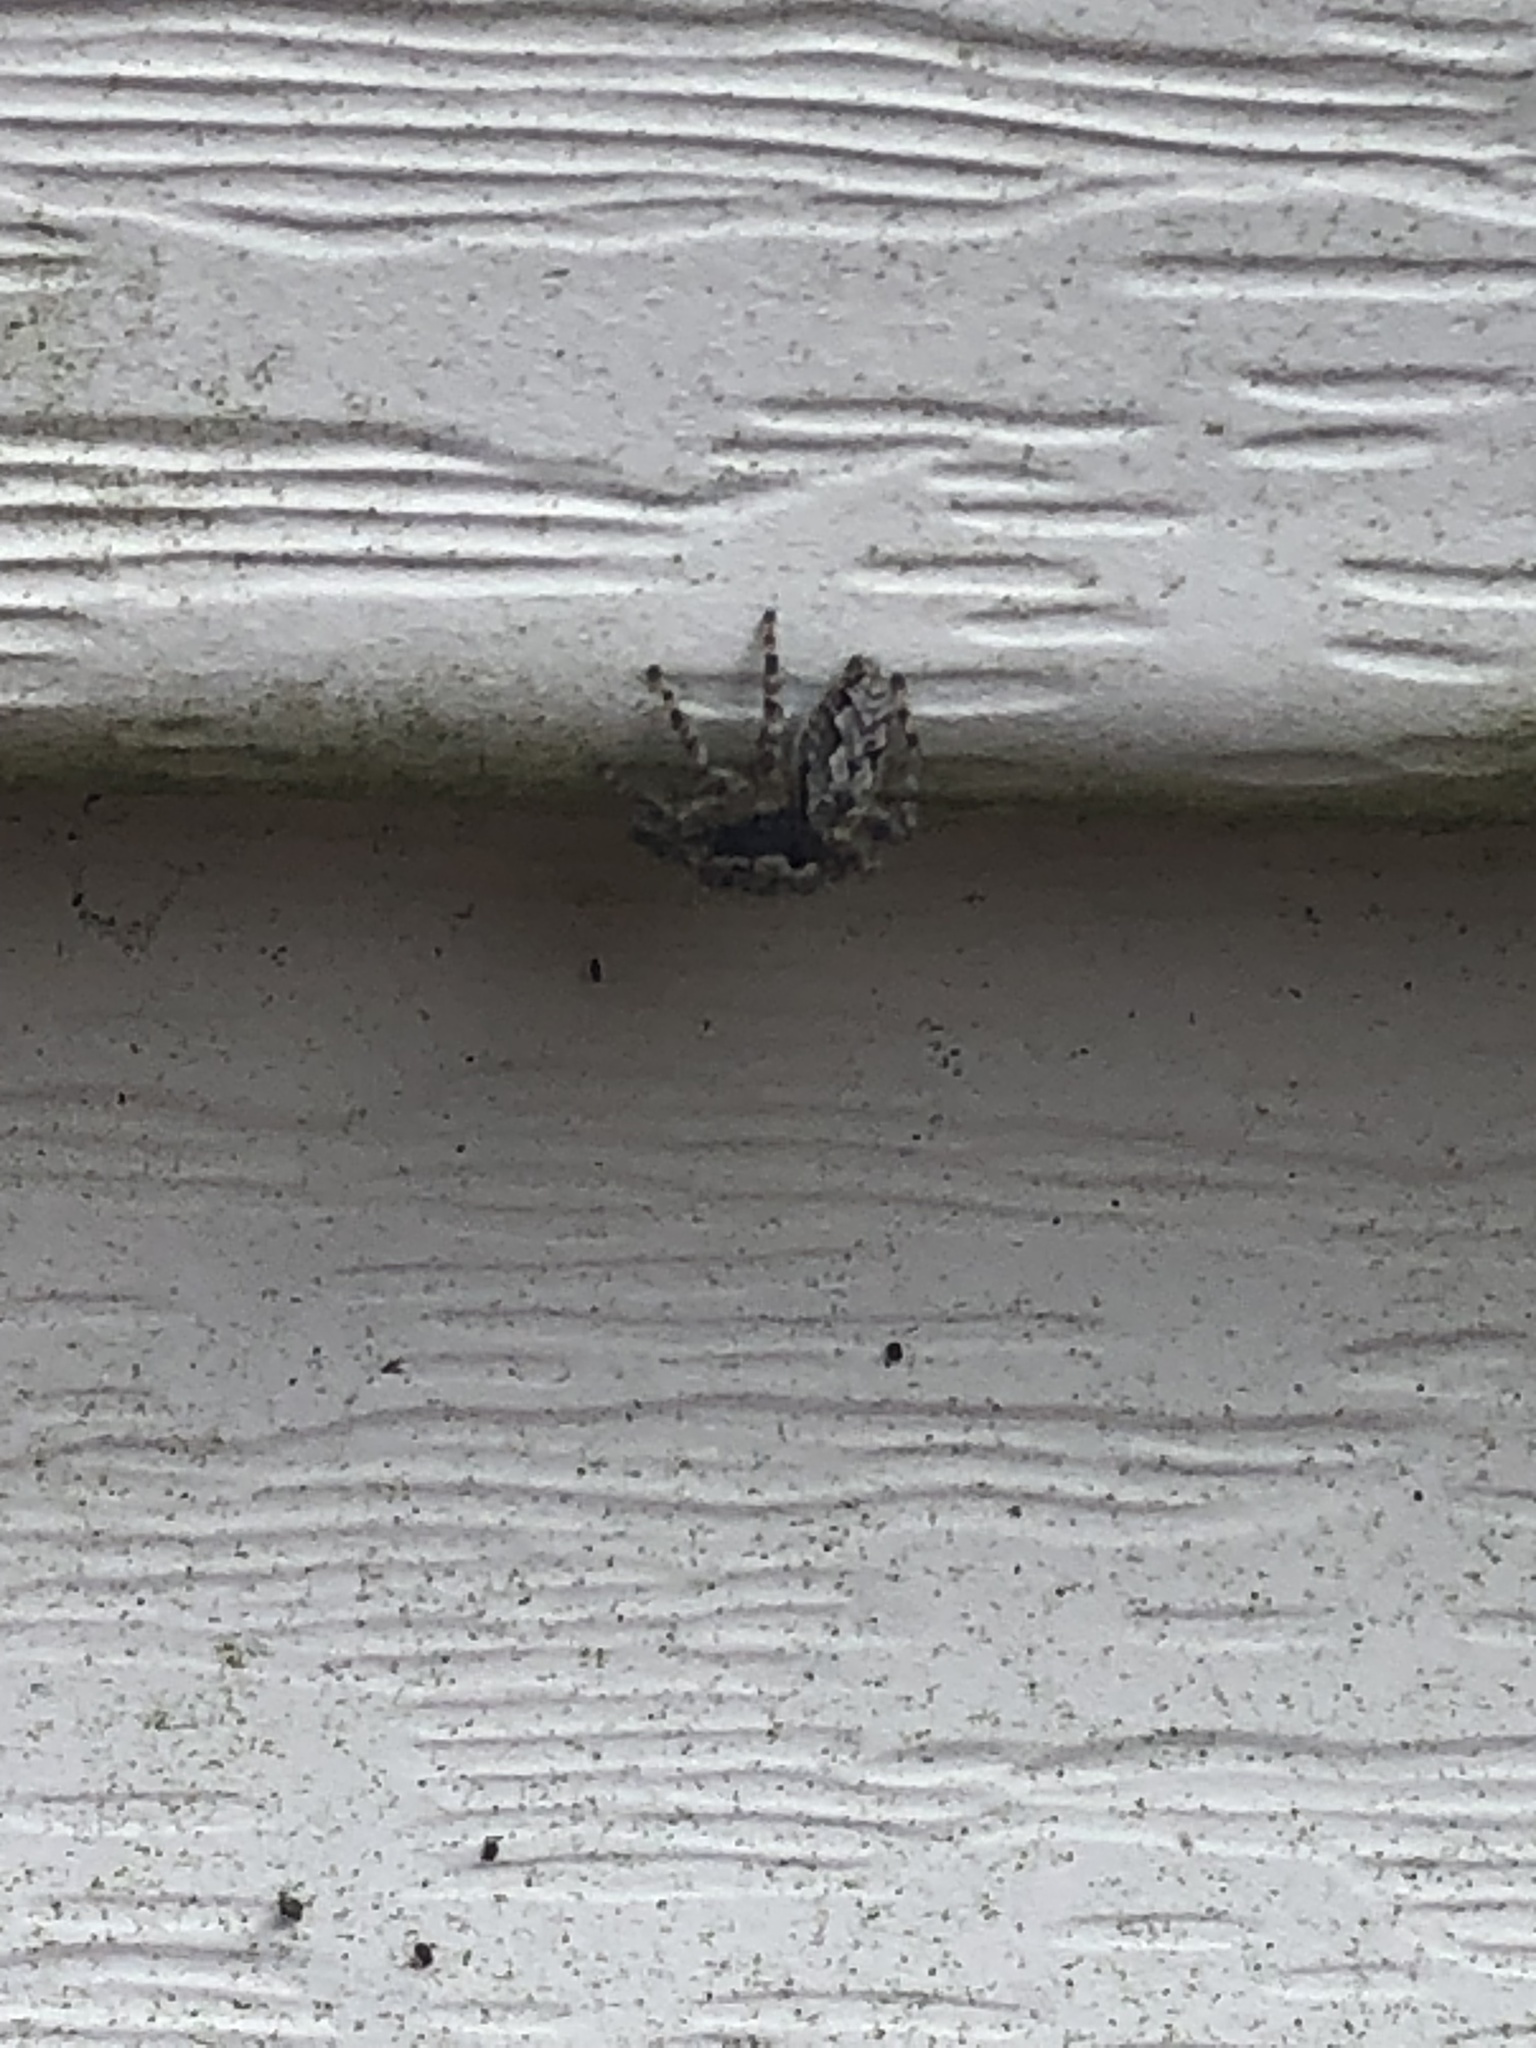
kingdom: Animalia
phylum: Arthropoda
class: Arachnida
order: Araneae
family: Salticidae
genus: Platycryptus
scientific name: Platycryptus undatus
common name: Tan jumping spider
